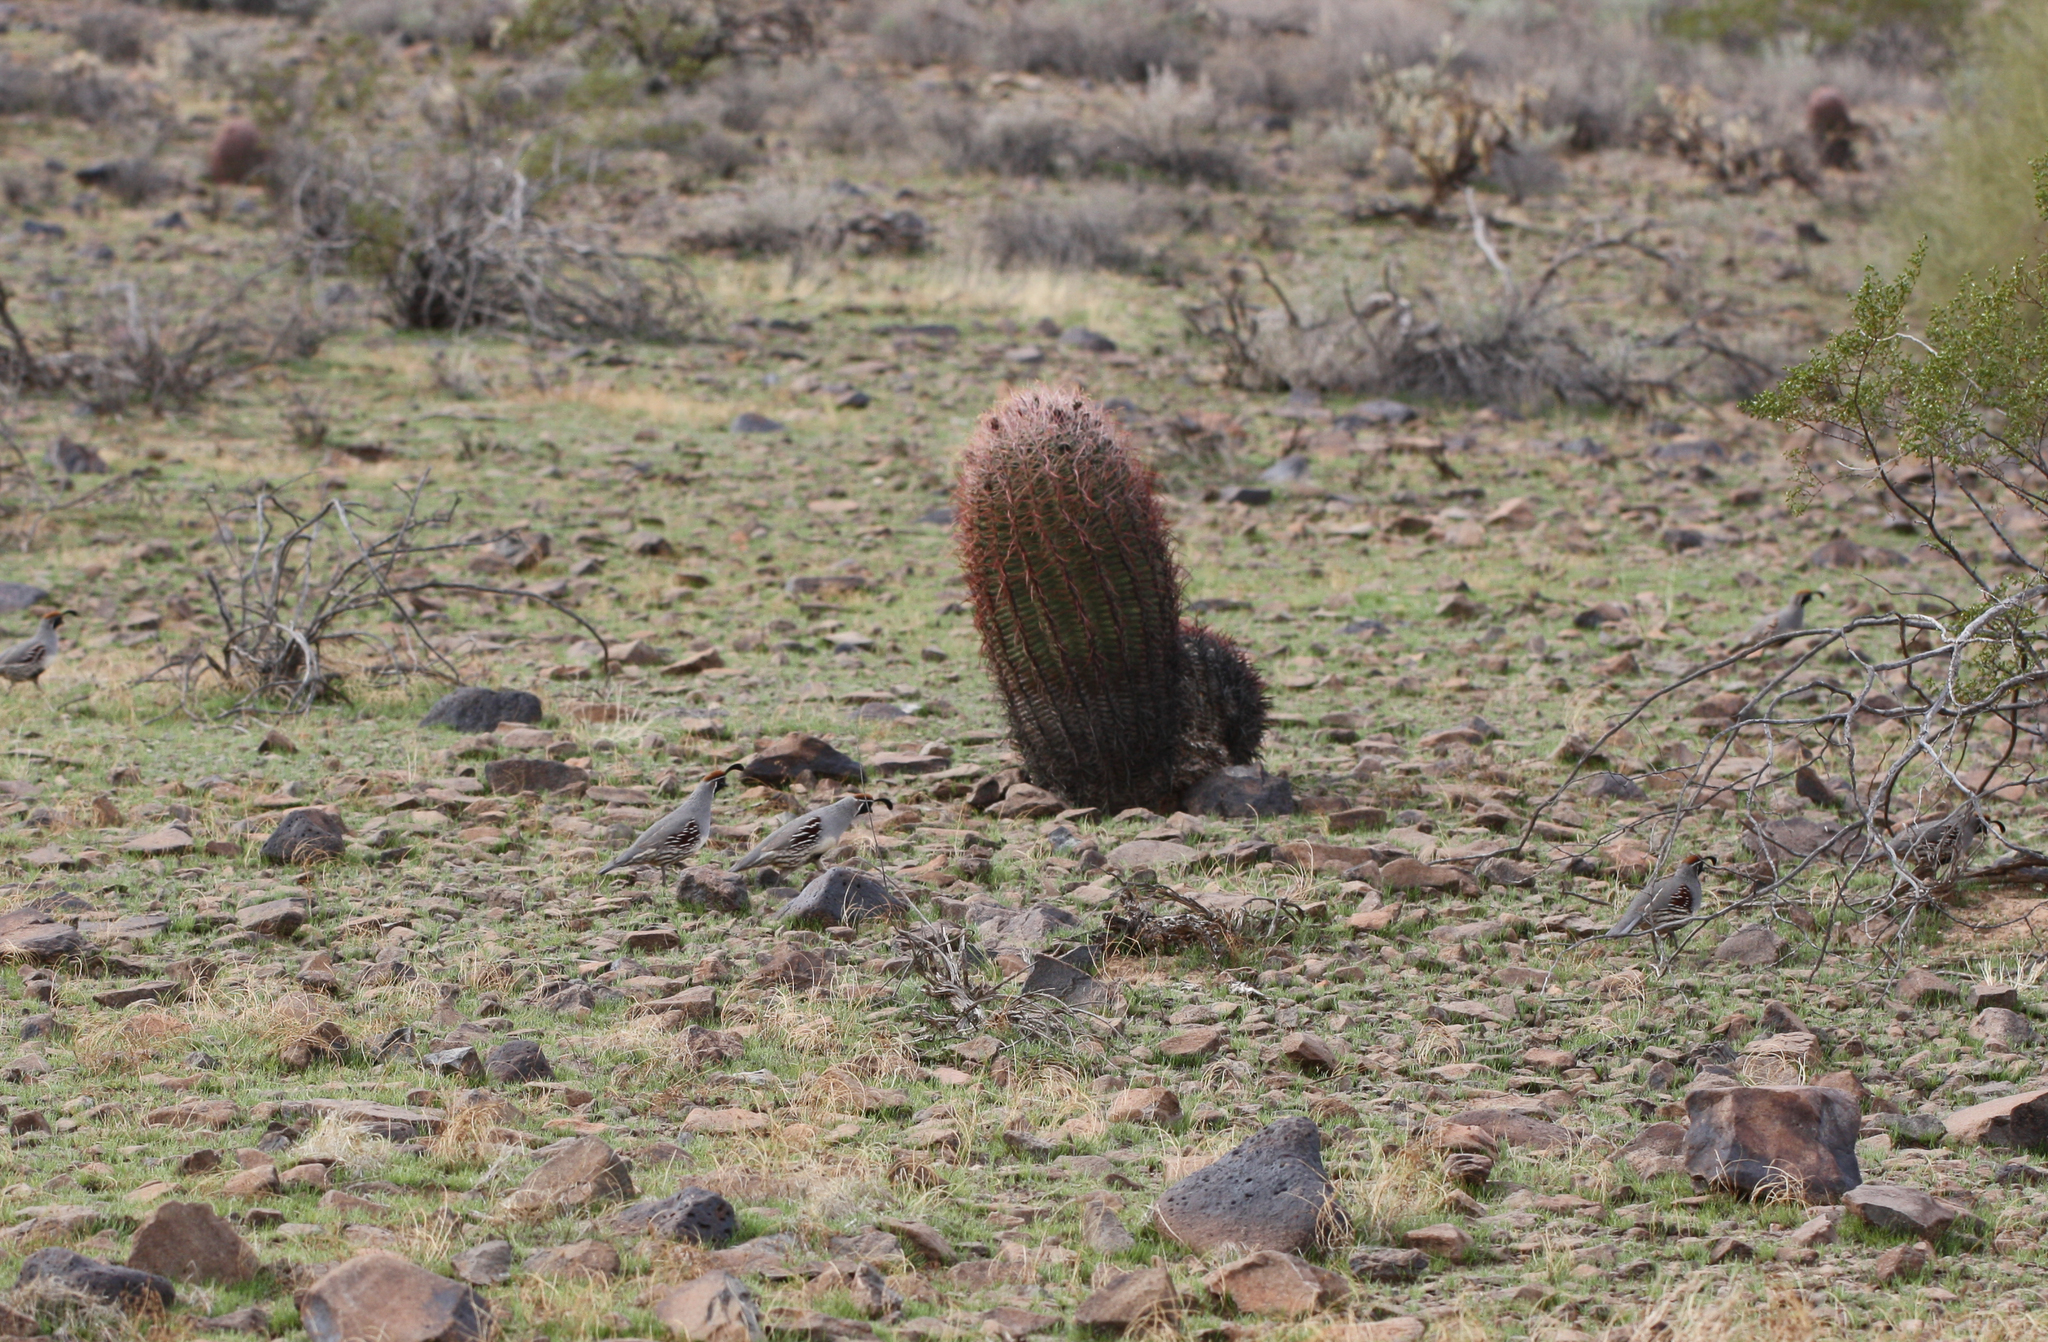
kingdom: Animalia
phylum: Chordata
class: Aves
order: Galliformes
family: Odontophoridae
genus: Callipepla
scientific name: Callipepla gambelii
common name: Gambel's quail
